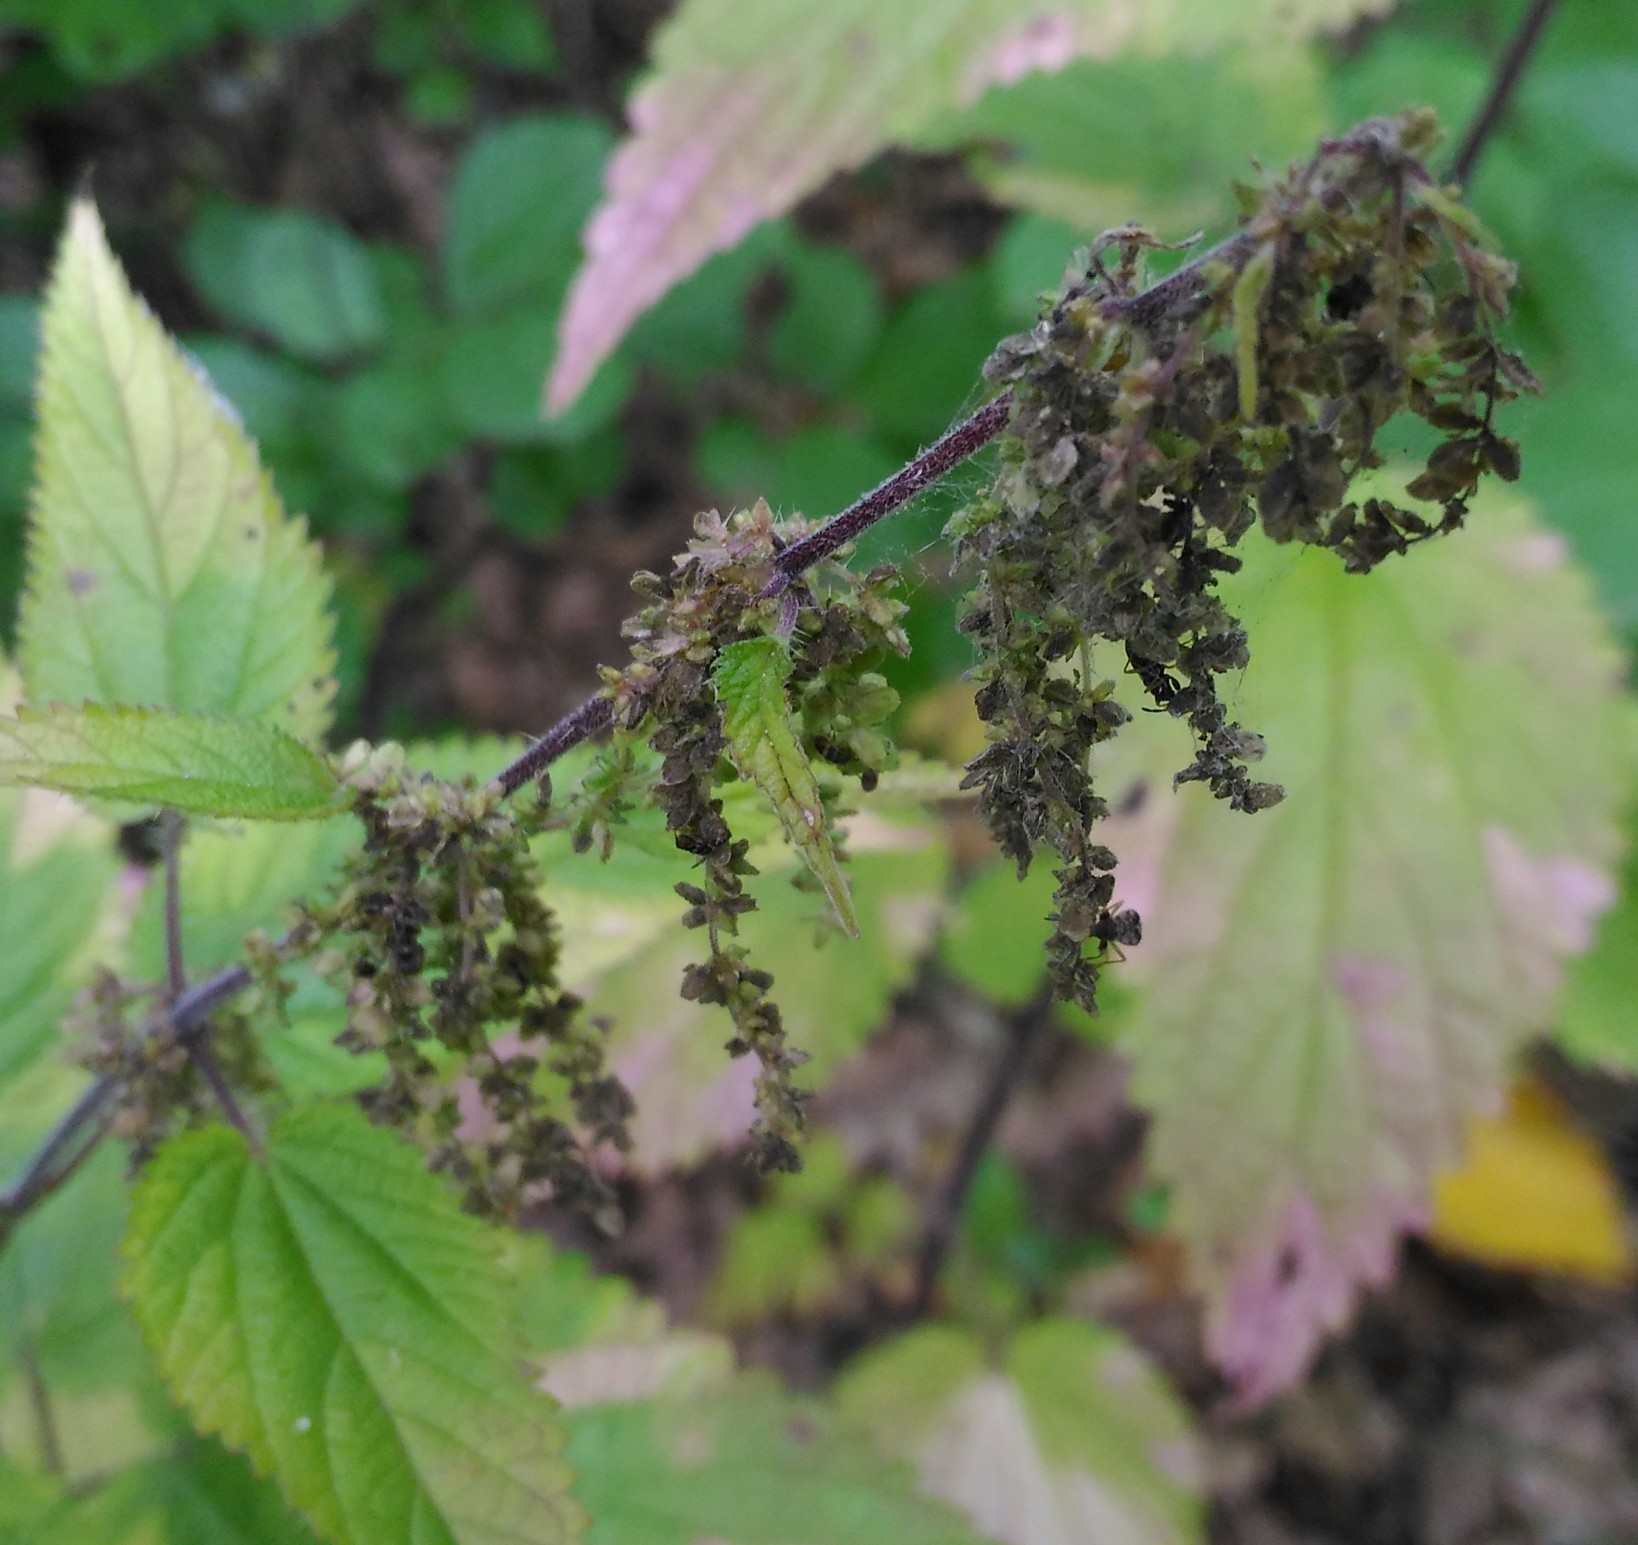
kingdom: Plantae
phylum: Tracheophyta
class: Magnoliopsida
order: Rosales
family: Urticaceae
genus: Urtica
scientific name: Urtica dioica
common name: Common nettle
